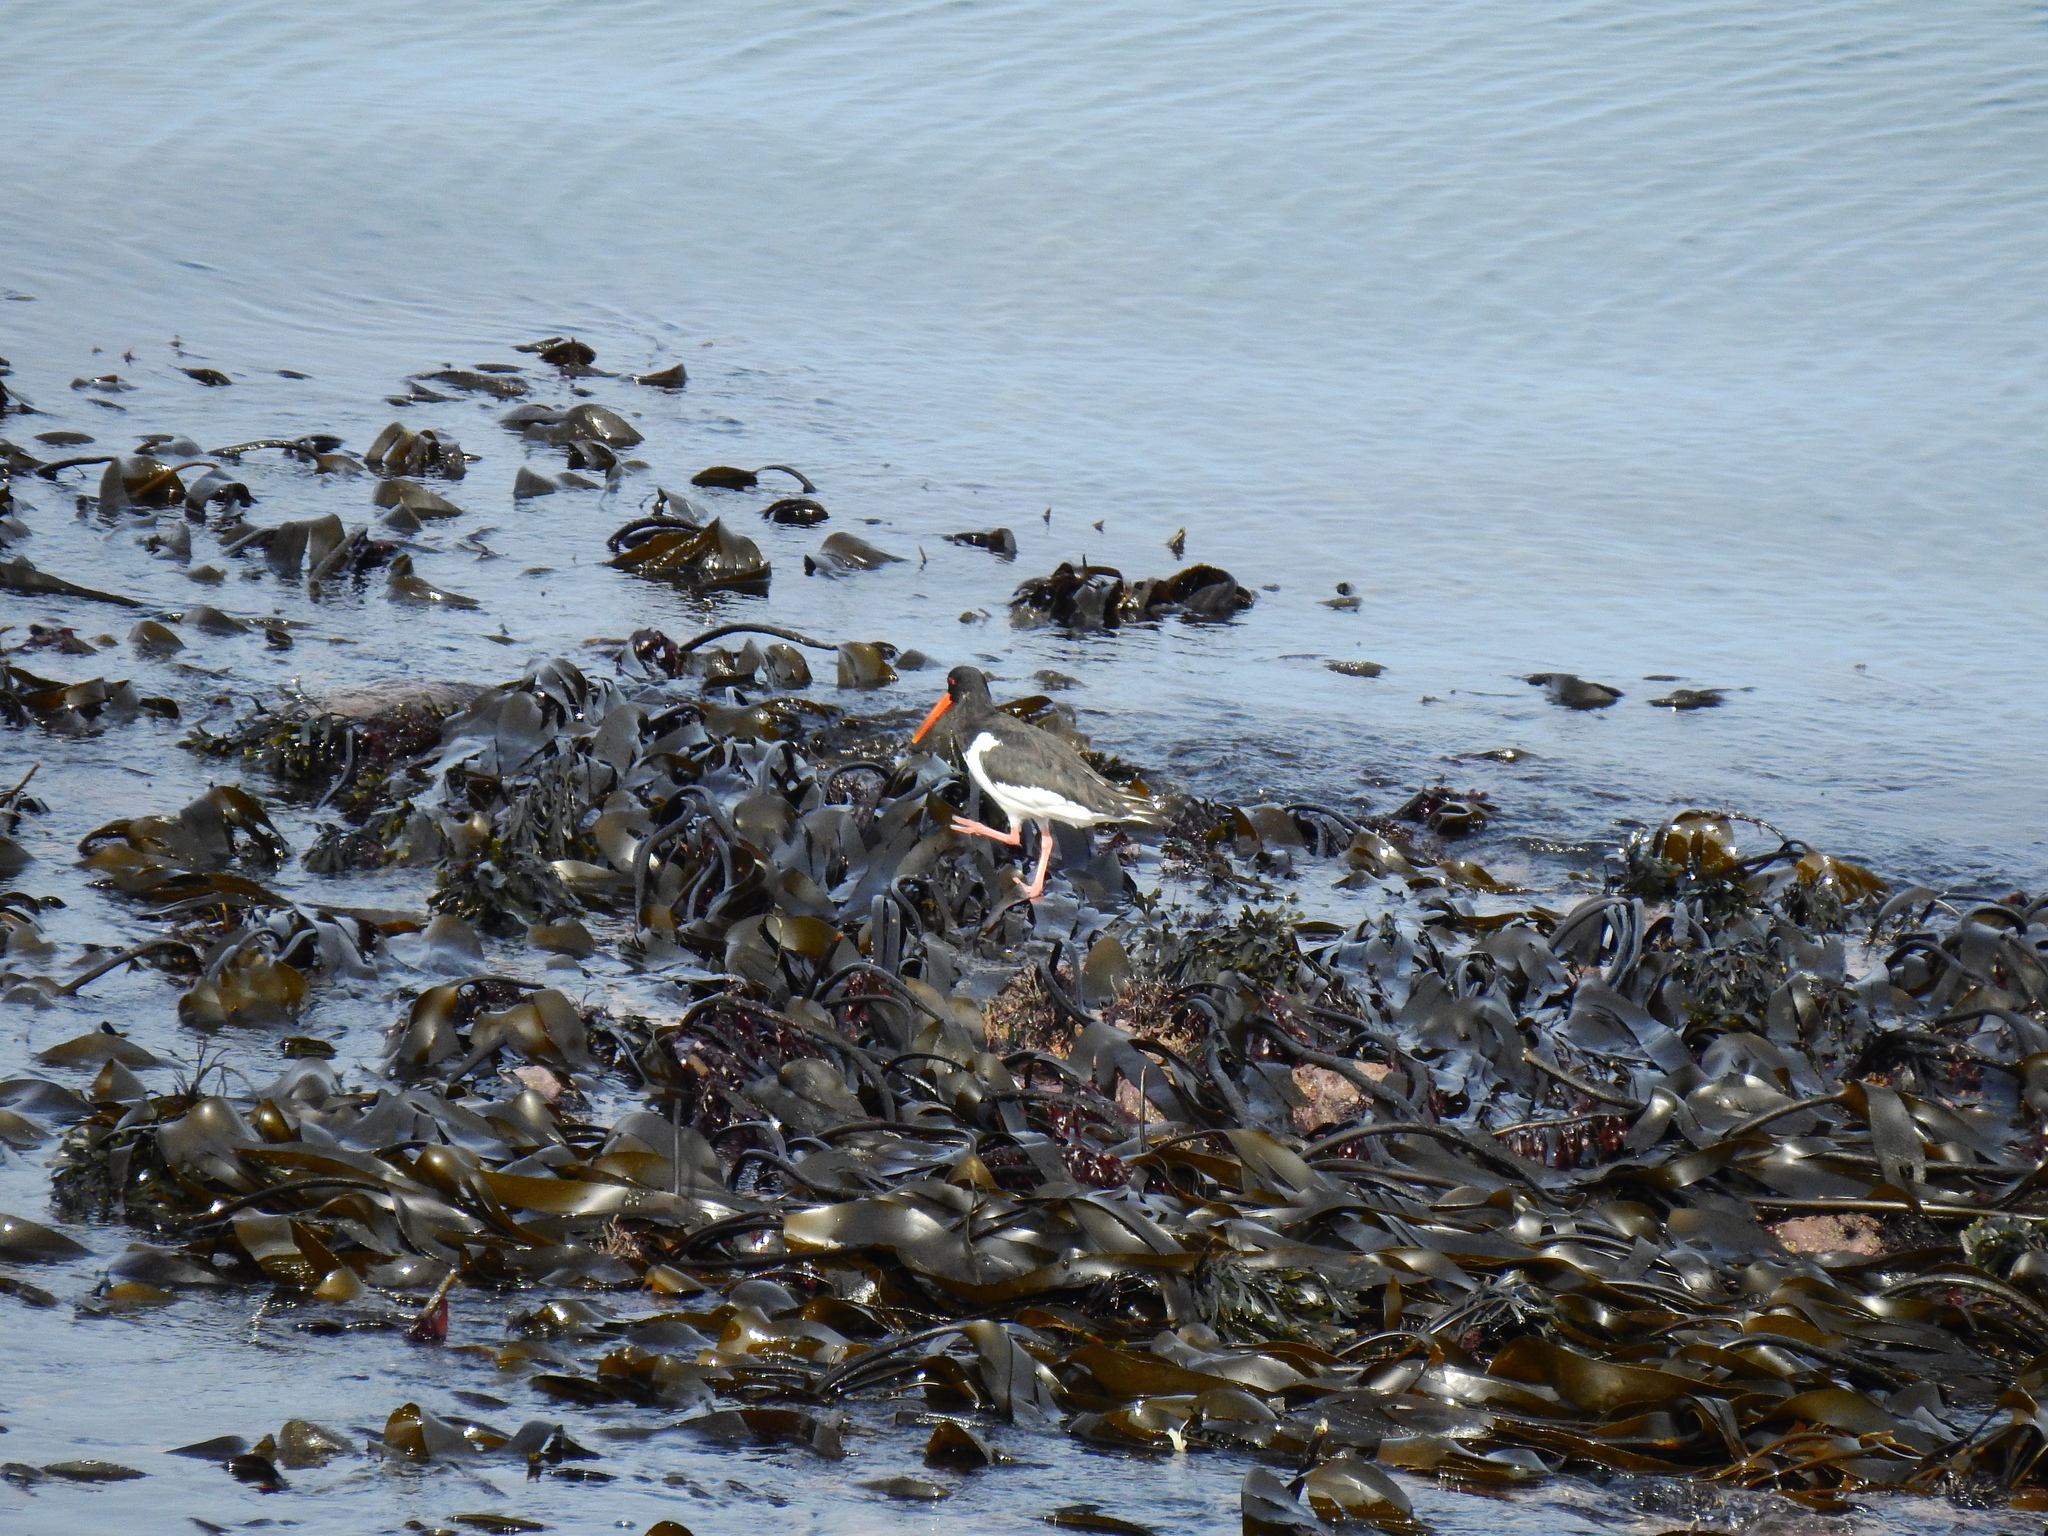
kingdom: Animalia
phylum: Chordata
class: Aves
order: Charadriiformes
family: Haematopodidae
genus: Haematopus
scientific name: Haematopus ostralegus
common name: Eurasian oystercatcher
